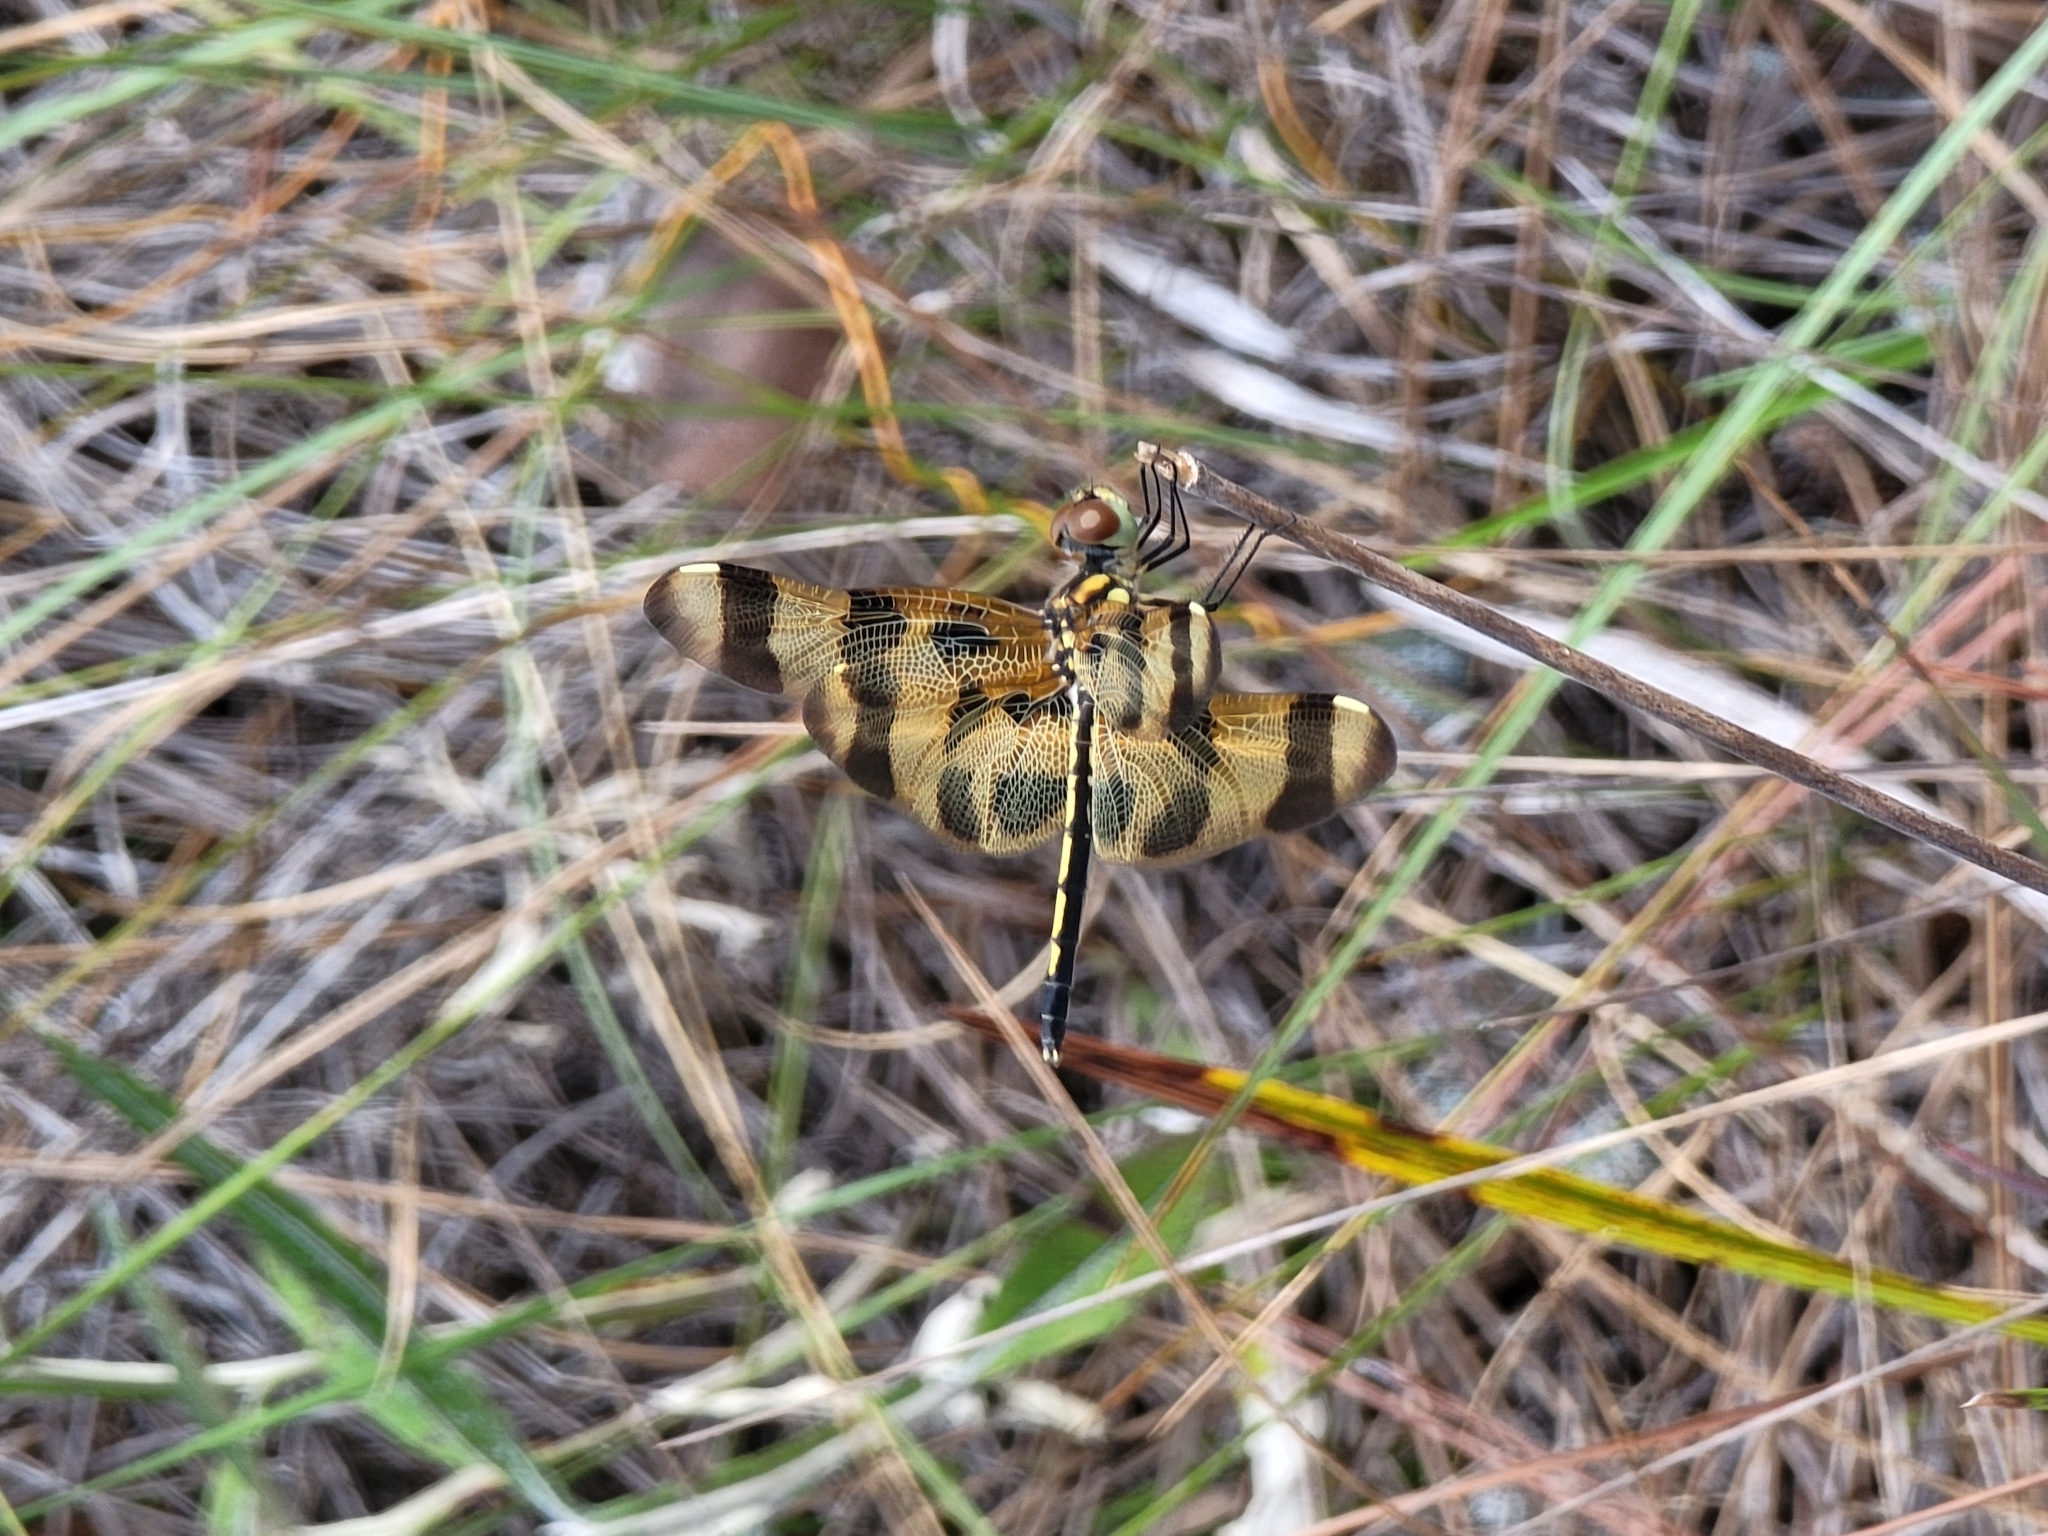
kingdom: Animalia
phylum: Arthropoda
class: Insecta
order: Odonata
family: Libellulidae
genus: Celithemis
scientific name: Celithemis eponina
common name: Halloween pennant
